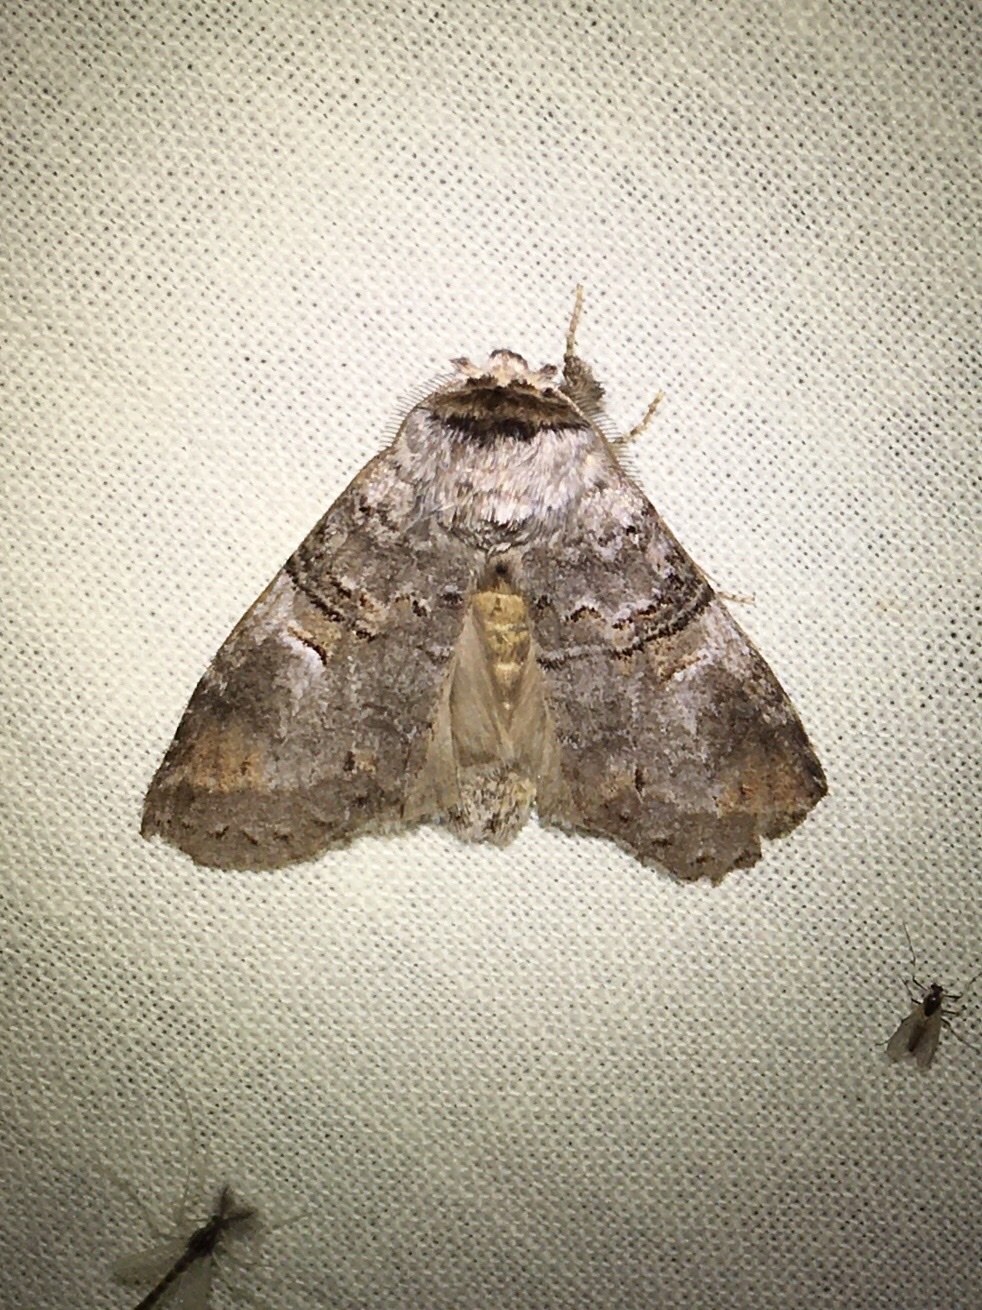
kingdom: Animalia
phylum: Arthropoda
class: Insecta
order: Lepidoptera
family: Notodontidae
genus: Ellida
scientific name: Ellida caniplaga
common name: Linden prominent
